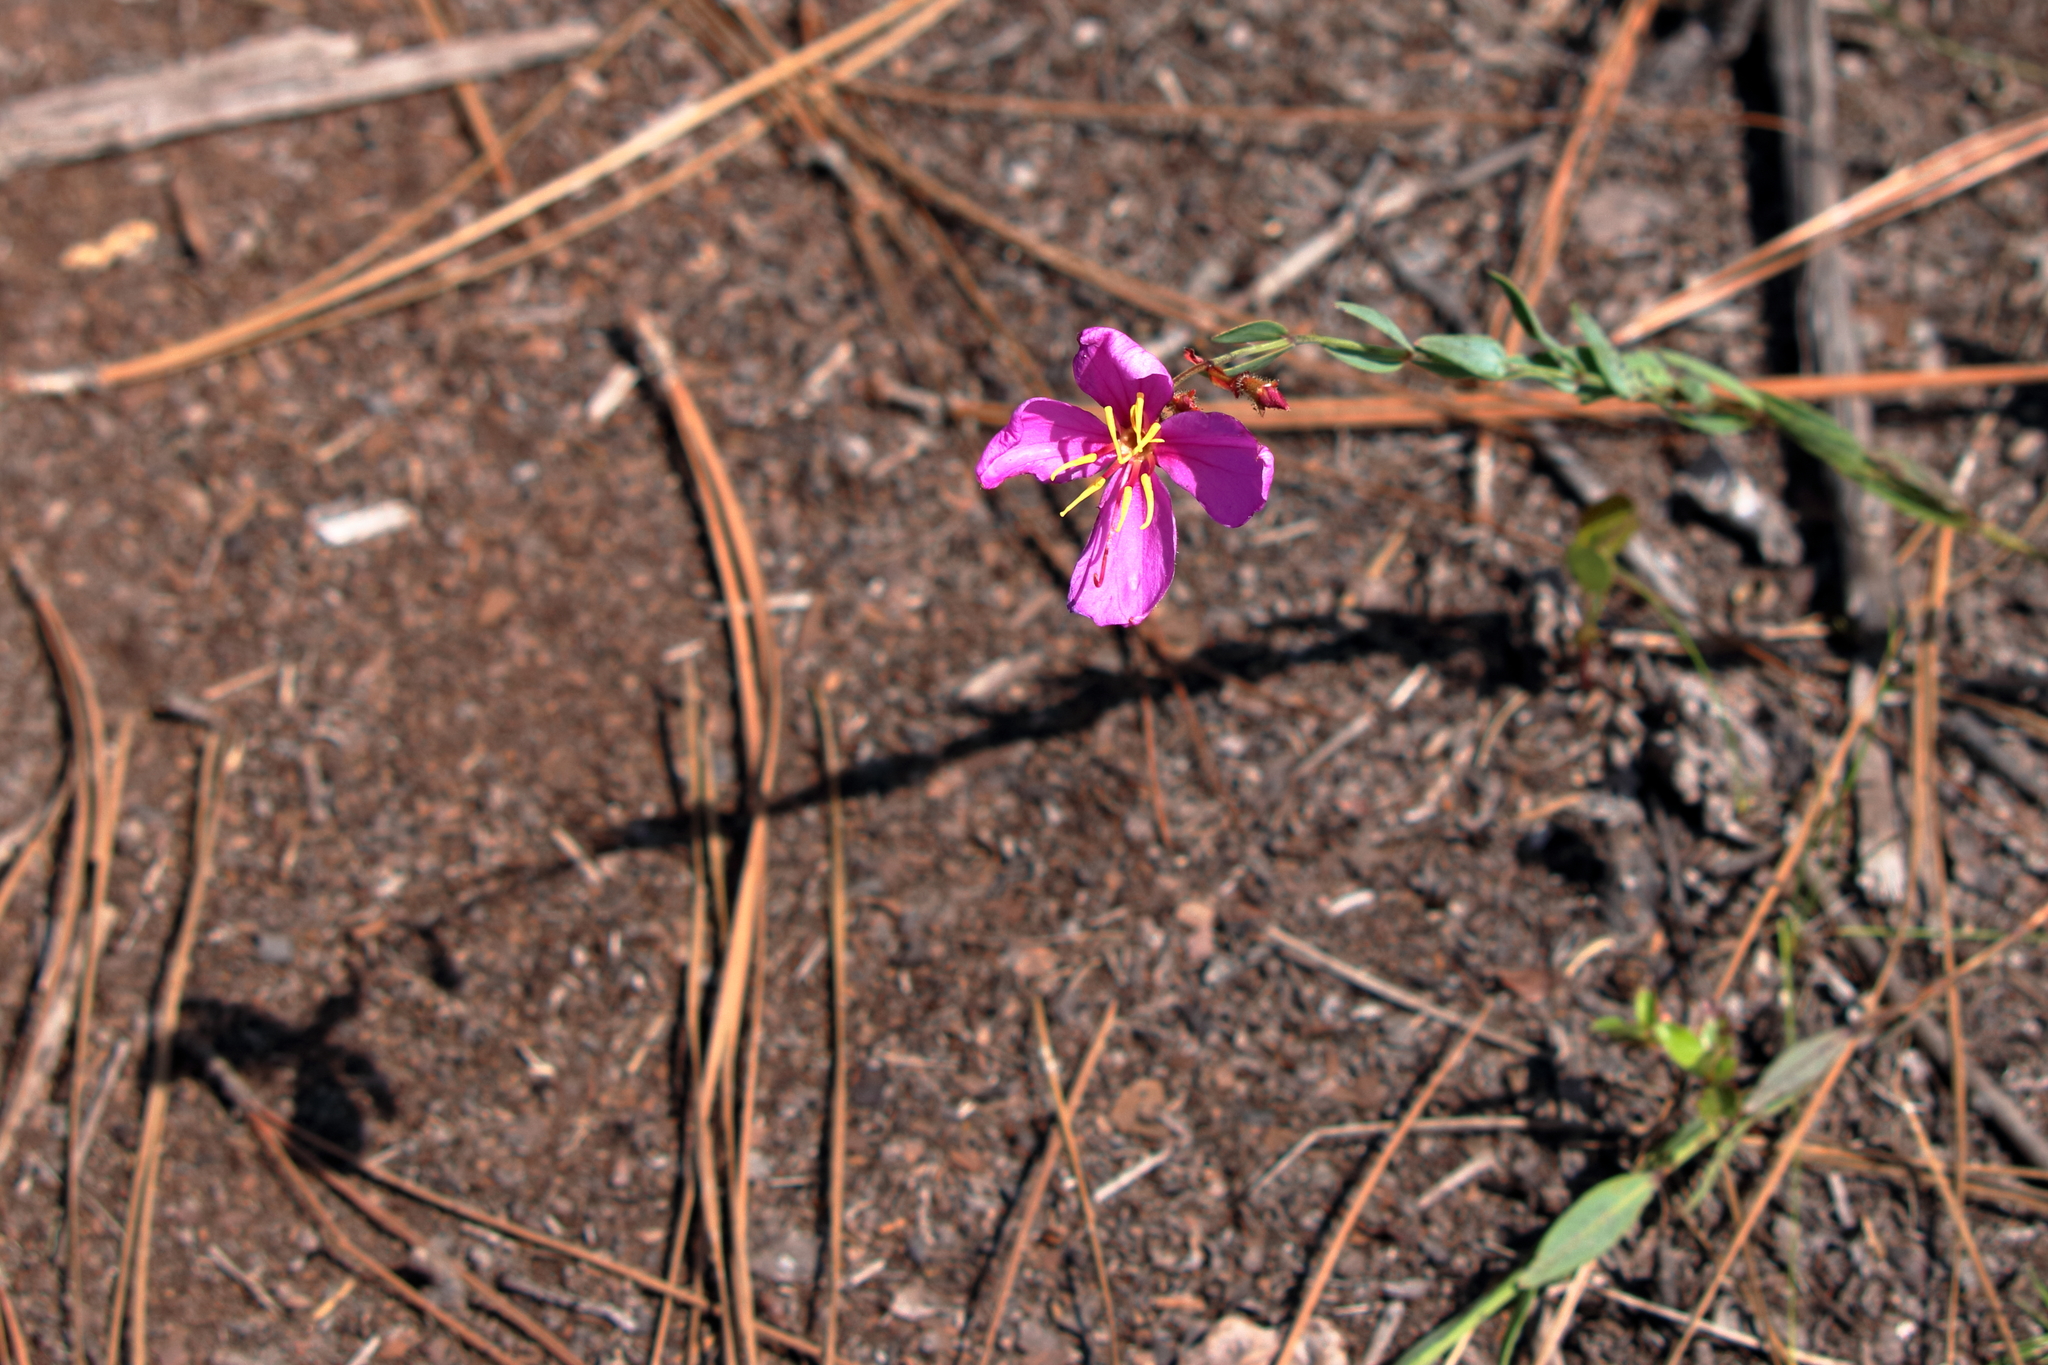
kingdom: Plantae
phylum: Tracheophyta
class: Magnoliopsida
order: Myrtales
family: Melastomataceae
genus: Rhexia
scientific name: Rhexia alifanus
